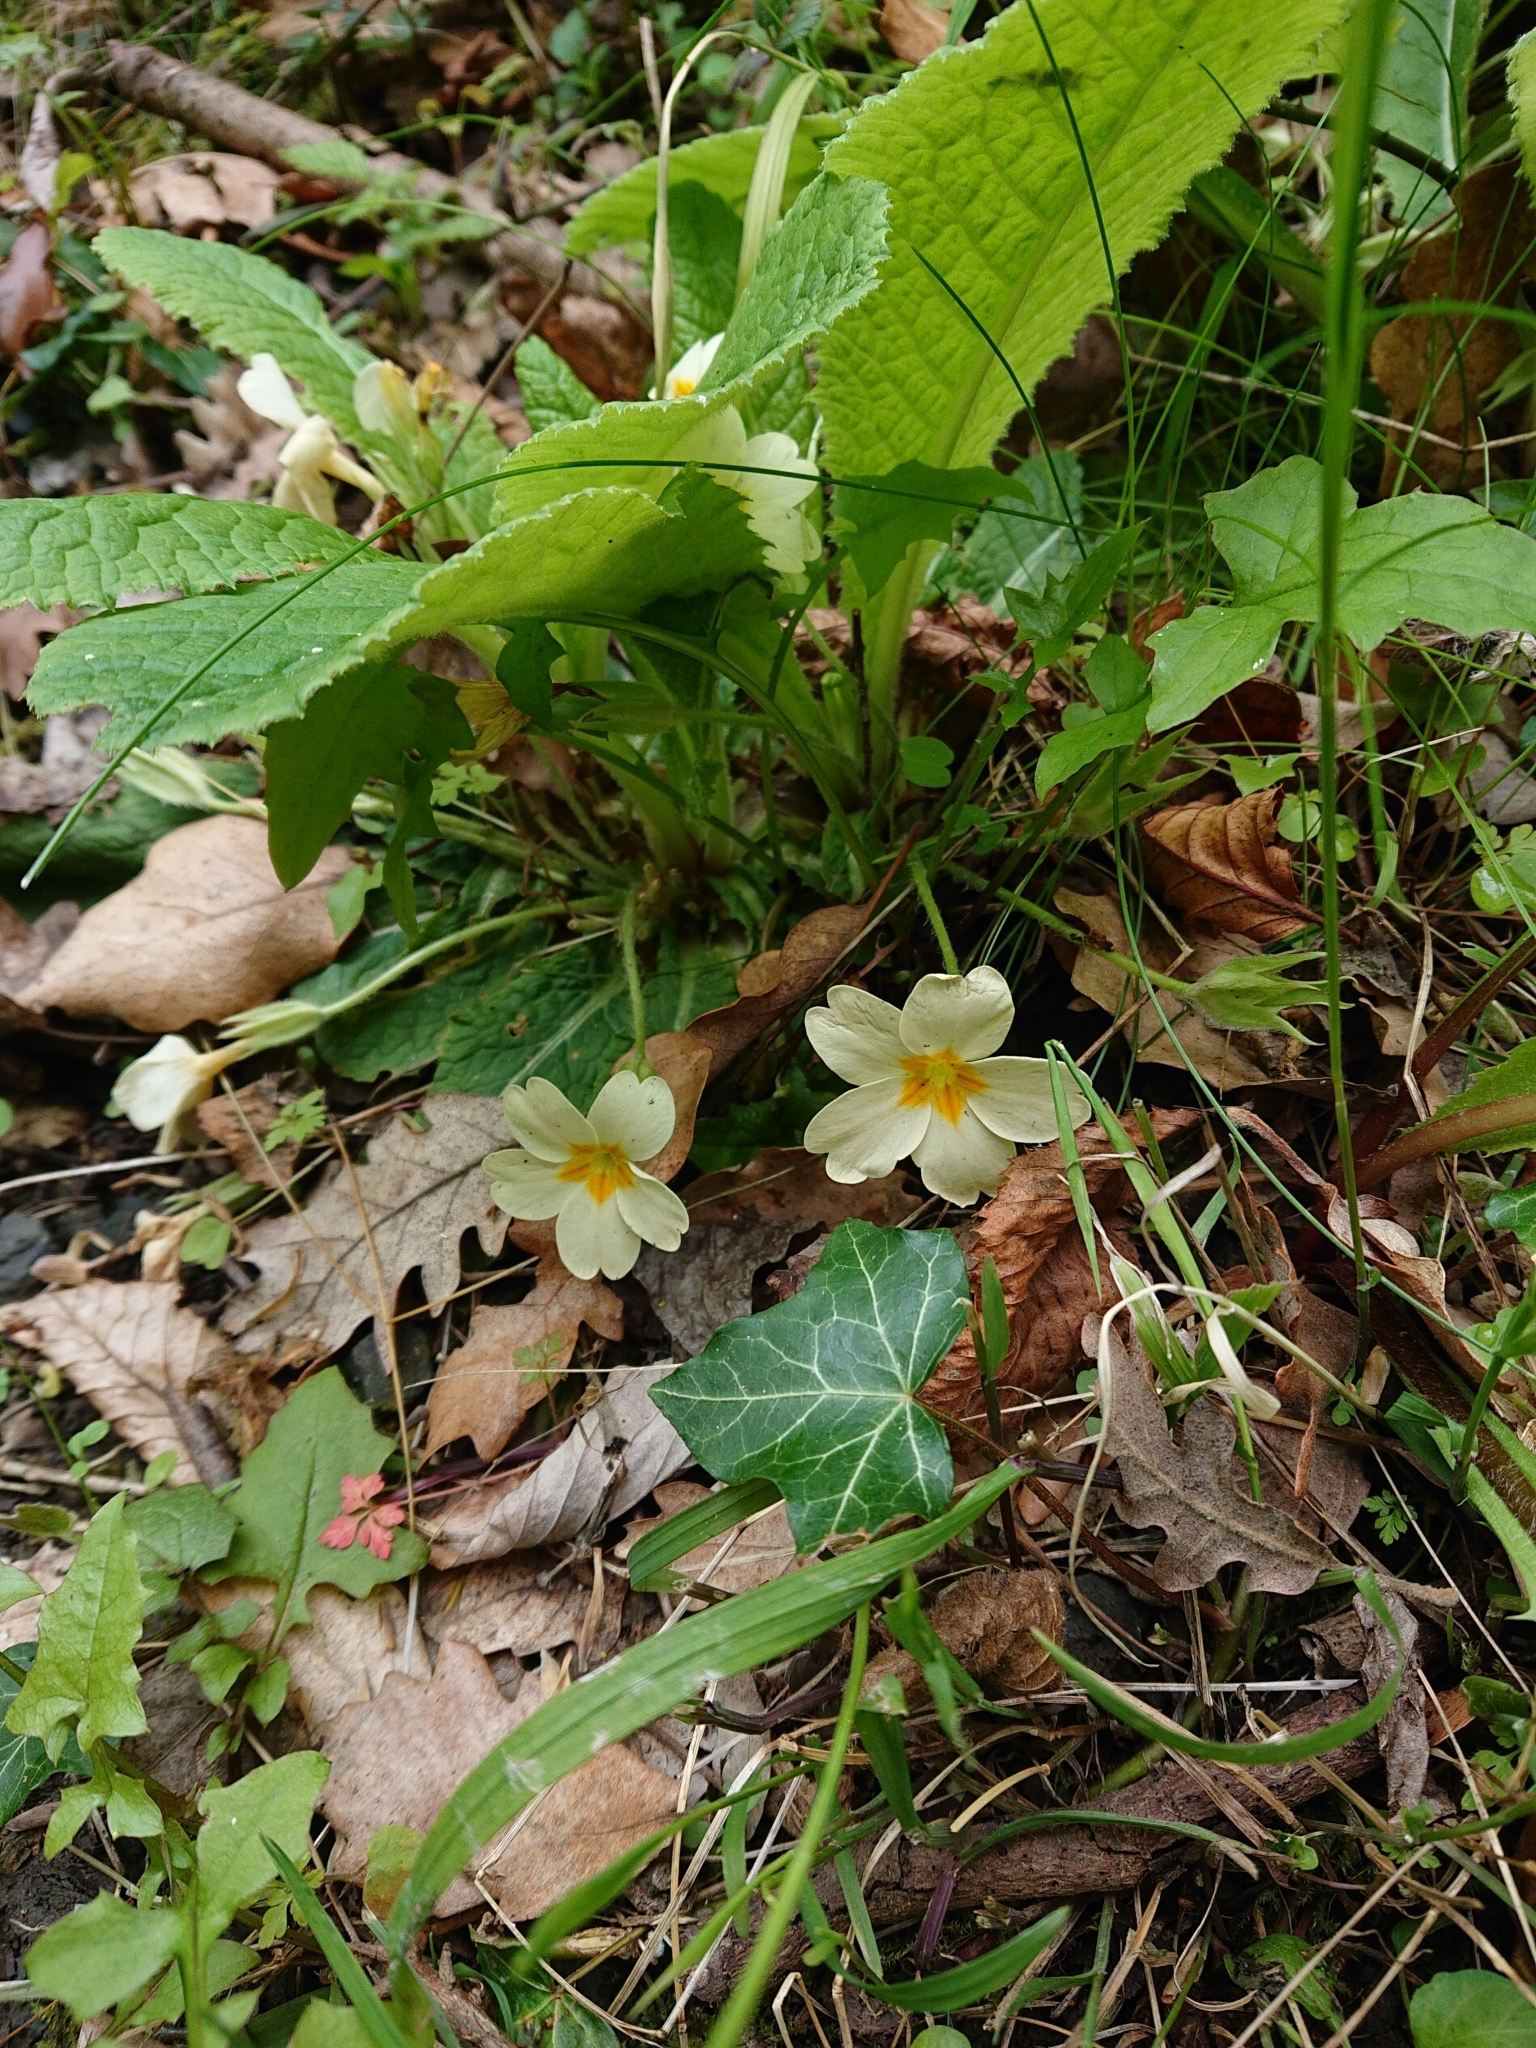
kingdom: Plantae
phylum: Tracheophyta
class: Magnoliopsida
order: Ericales
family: Primulaceae
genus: Primula
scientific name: Primula vulgaris
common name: Primrose
